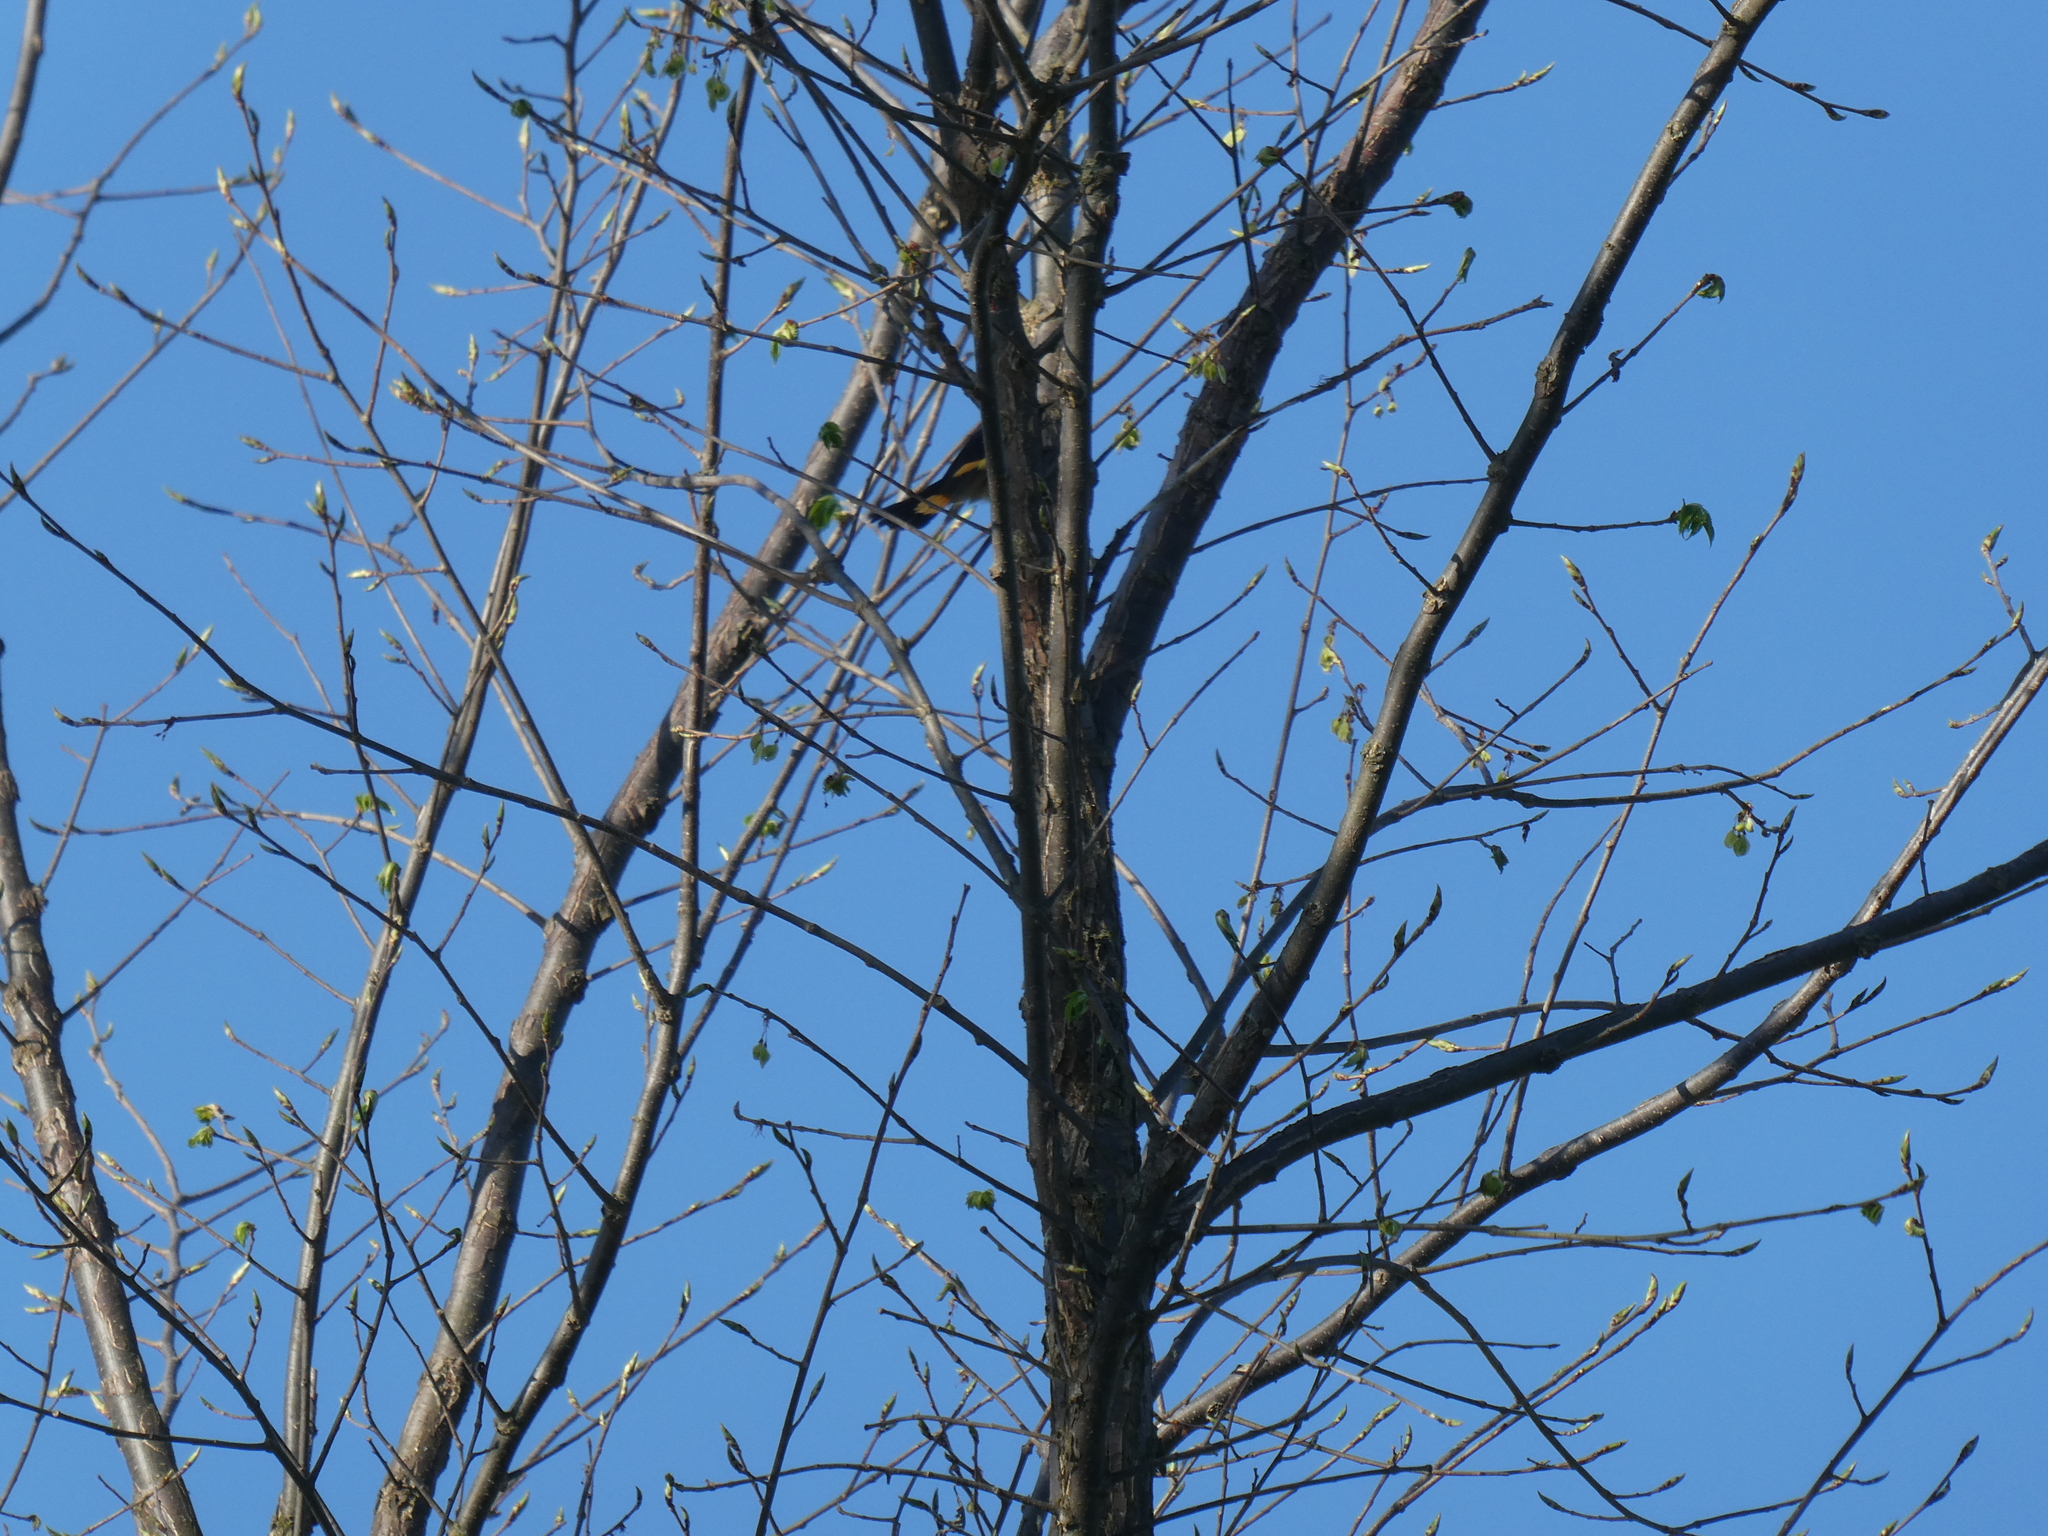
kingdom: Animalia
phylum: Chordata
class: Aves
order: Passeriformes
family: Parulidae
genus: Setophaga
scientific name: Setophaga ruticilla
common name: American redstart
